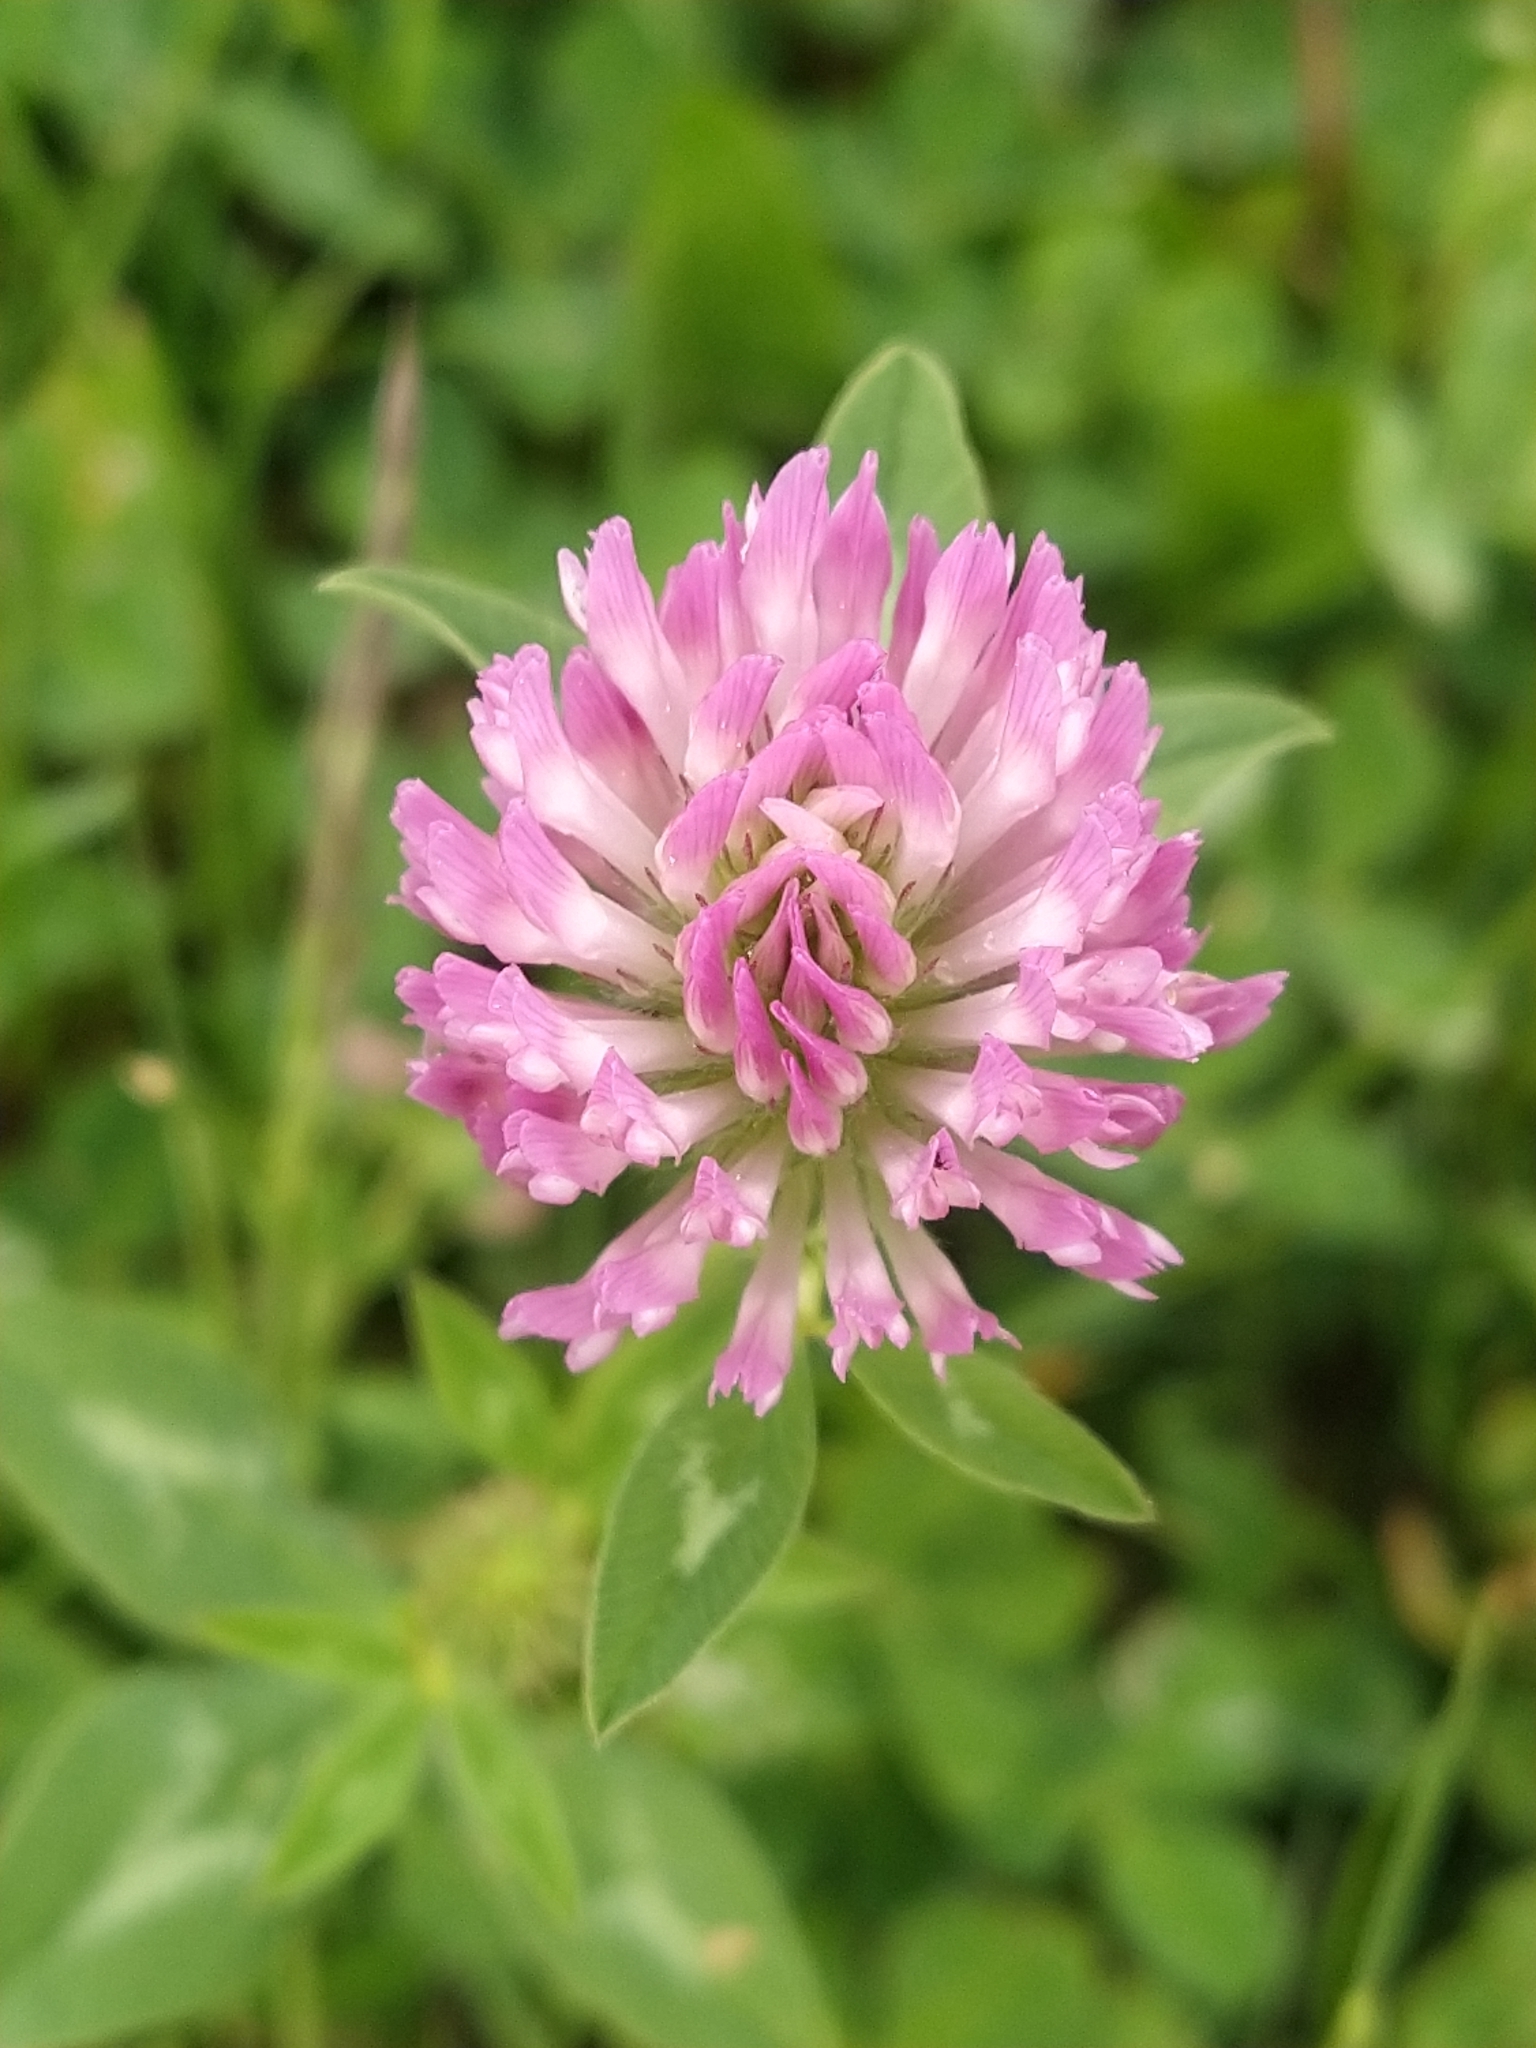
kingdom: Plantae
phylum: Tracheophyta
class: Magnoliopsida
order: Fabales
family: Fabaceae
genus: Trifolium
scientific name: Trifolium pratense
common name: Red clover
